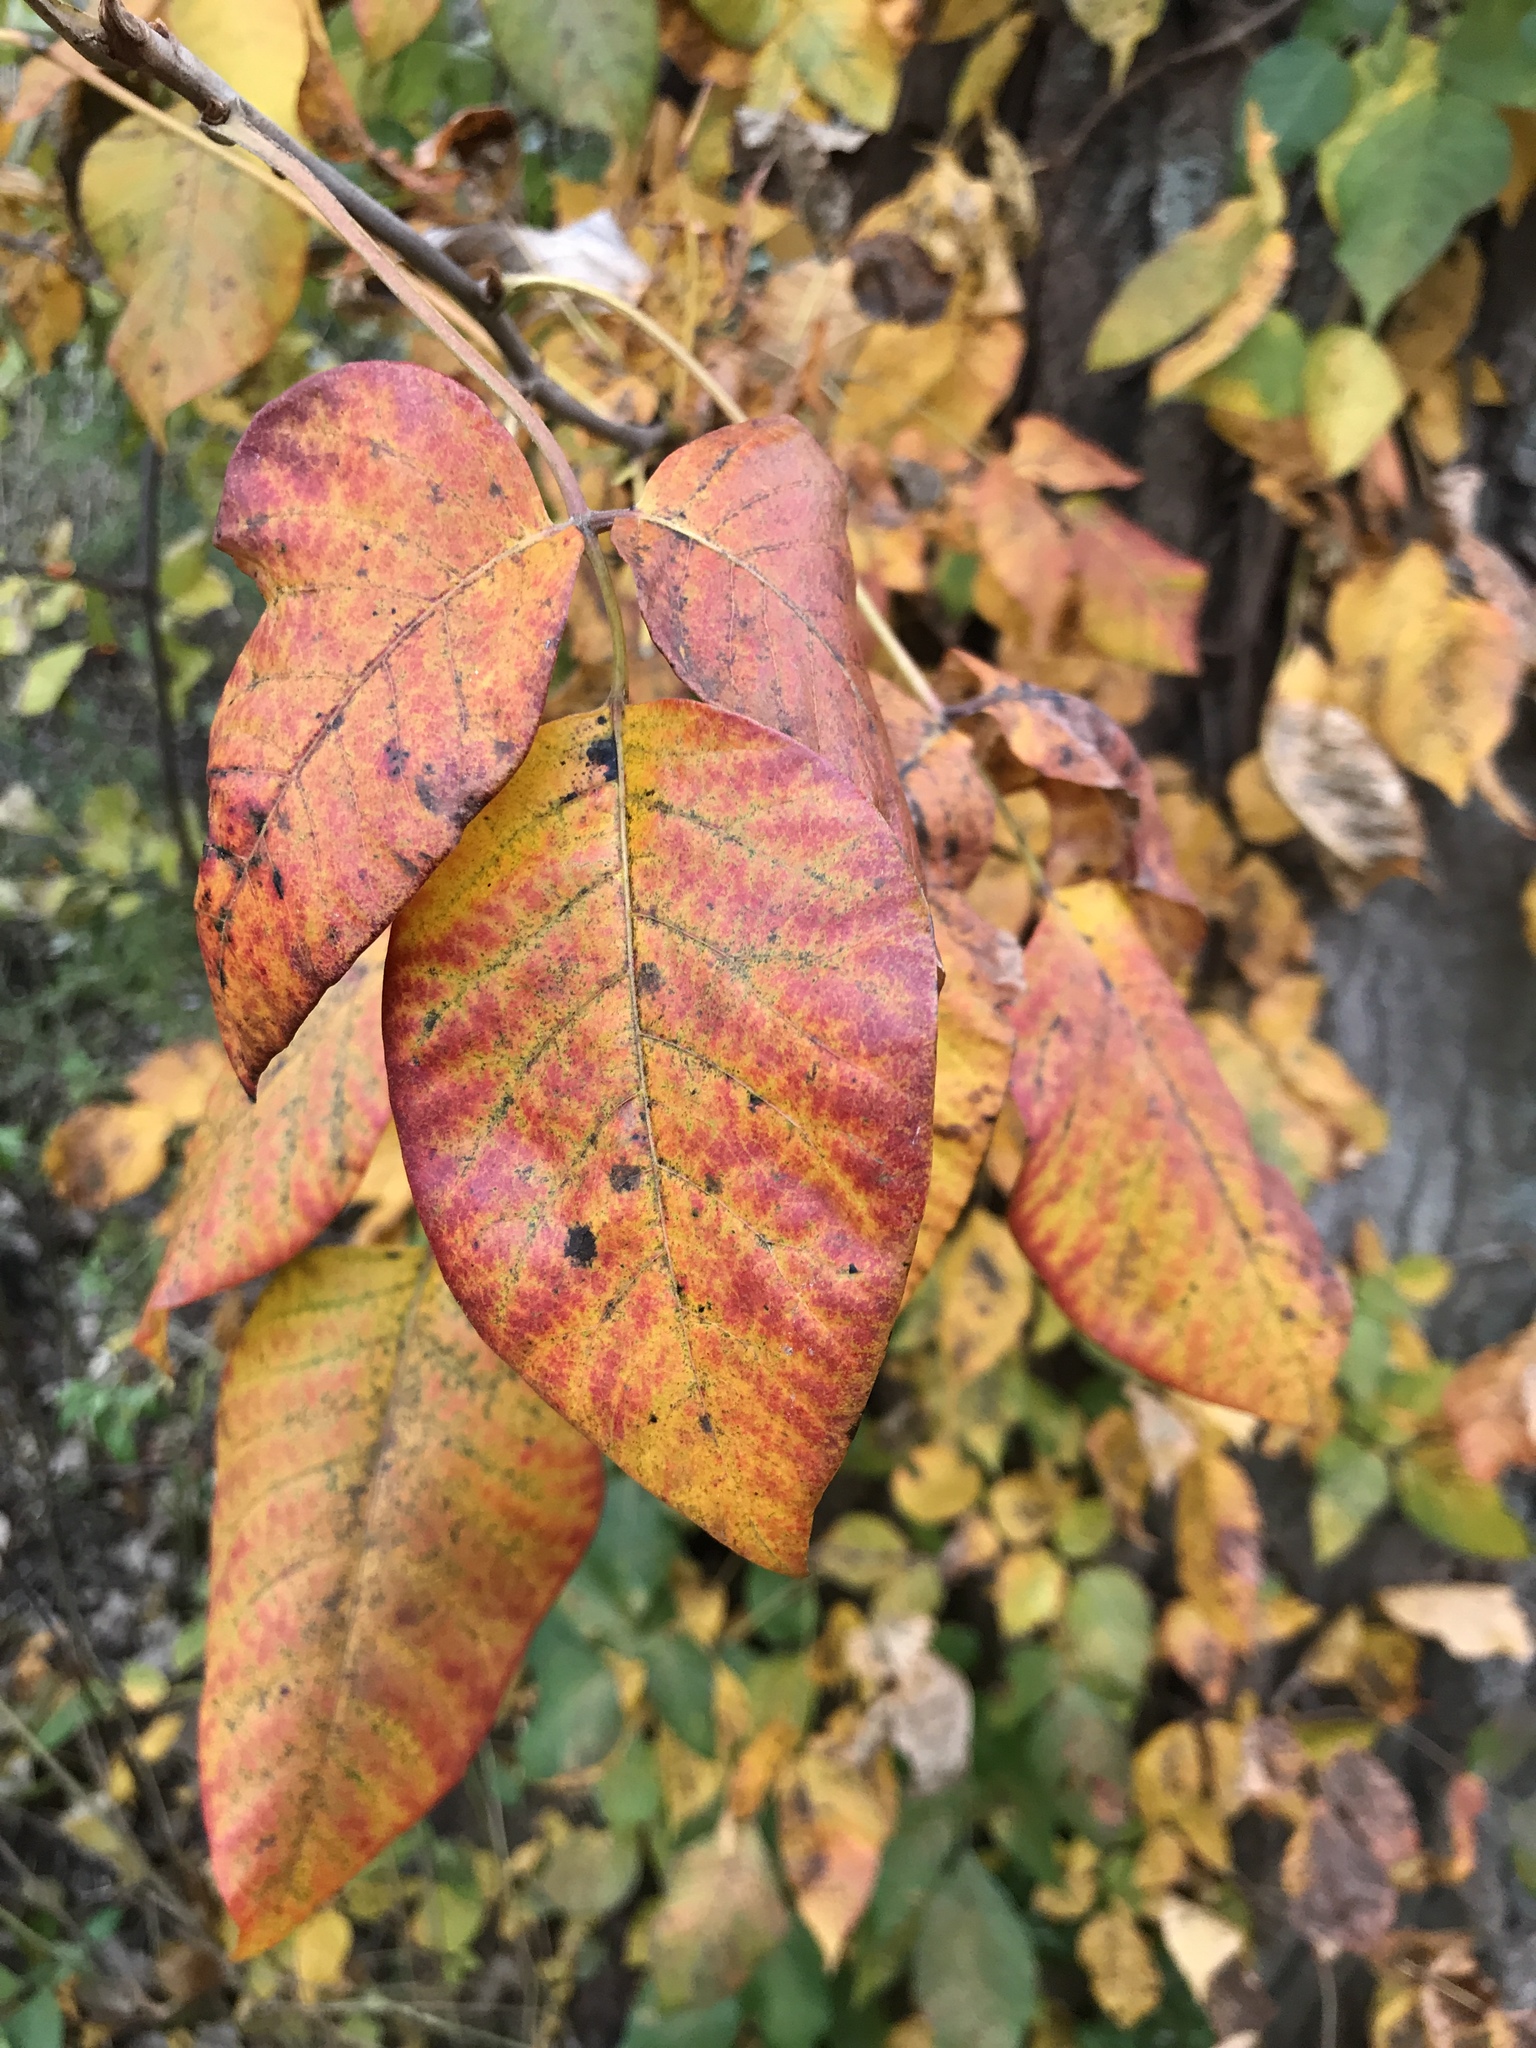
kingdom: Plantae
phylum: Tracheophyta
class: Magnoliopsida
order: Sapindales
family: Anacardiaceae
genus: Toxicodendron
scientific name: Toxicodendron radicans
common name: Poison ivy
